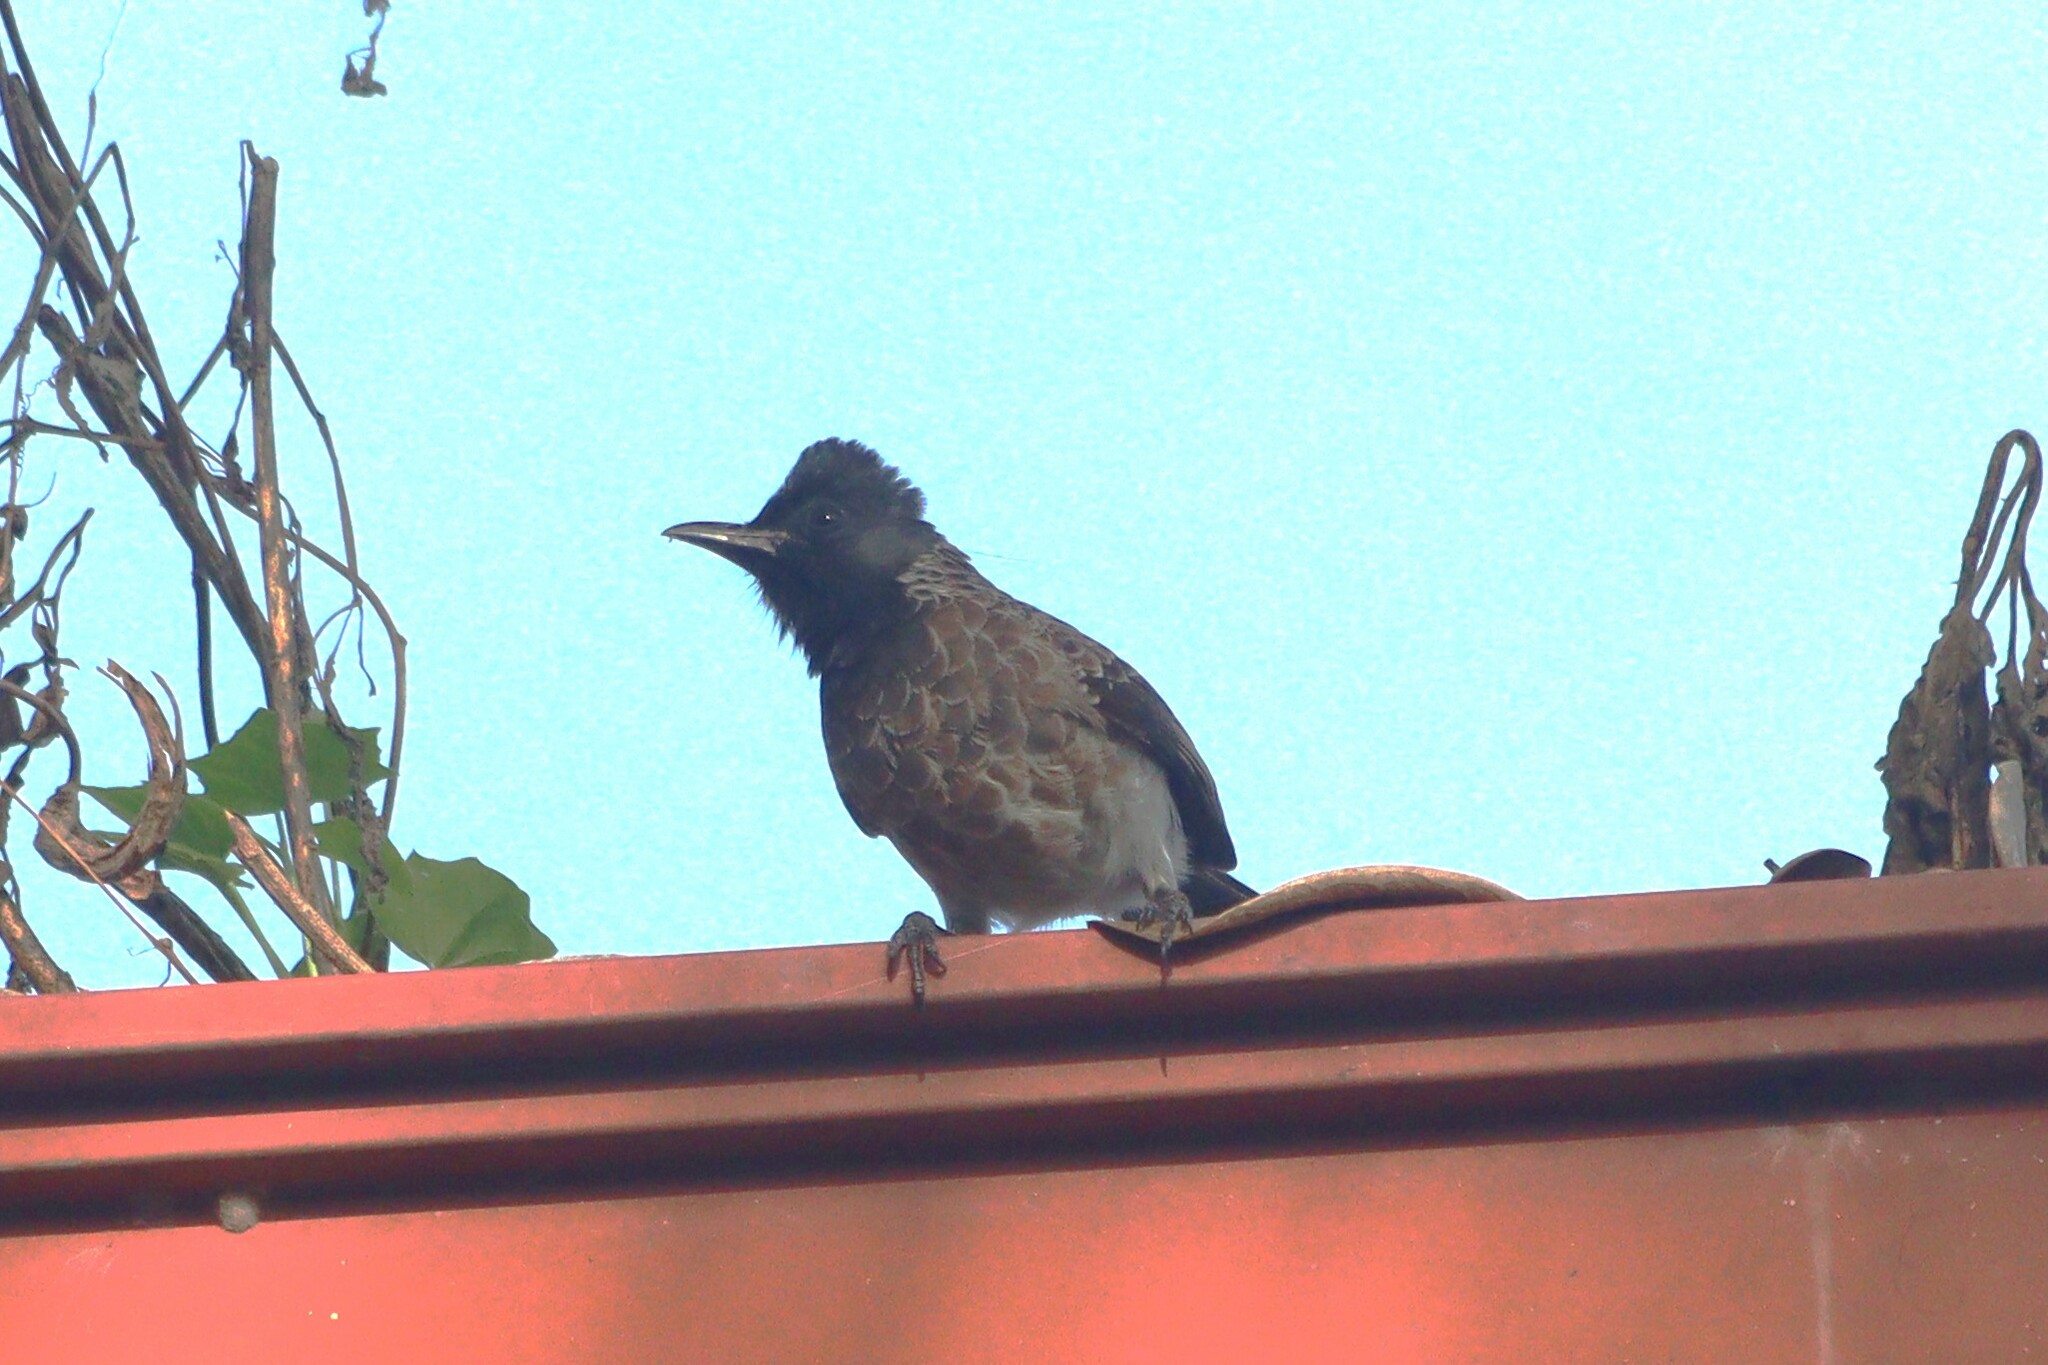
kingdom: Animalia
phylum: Chordata
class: Aves
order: Passeriformes
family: Pycnonotidae
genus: Pycnonotus
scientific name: Pycnonotus cafer
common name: Red-vented bulbul
